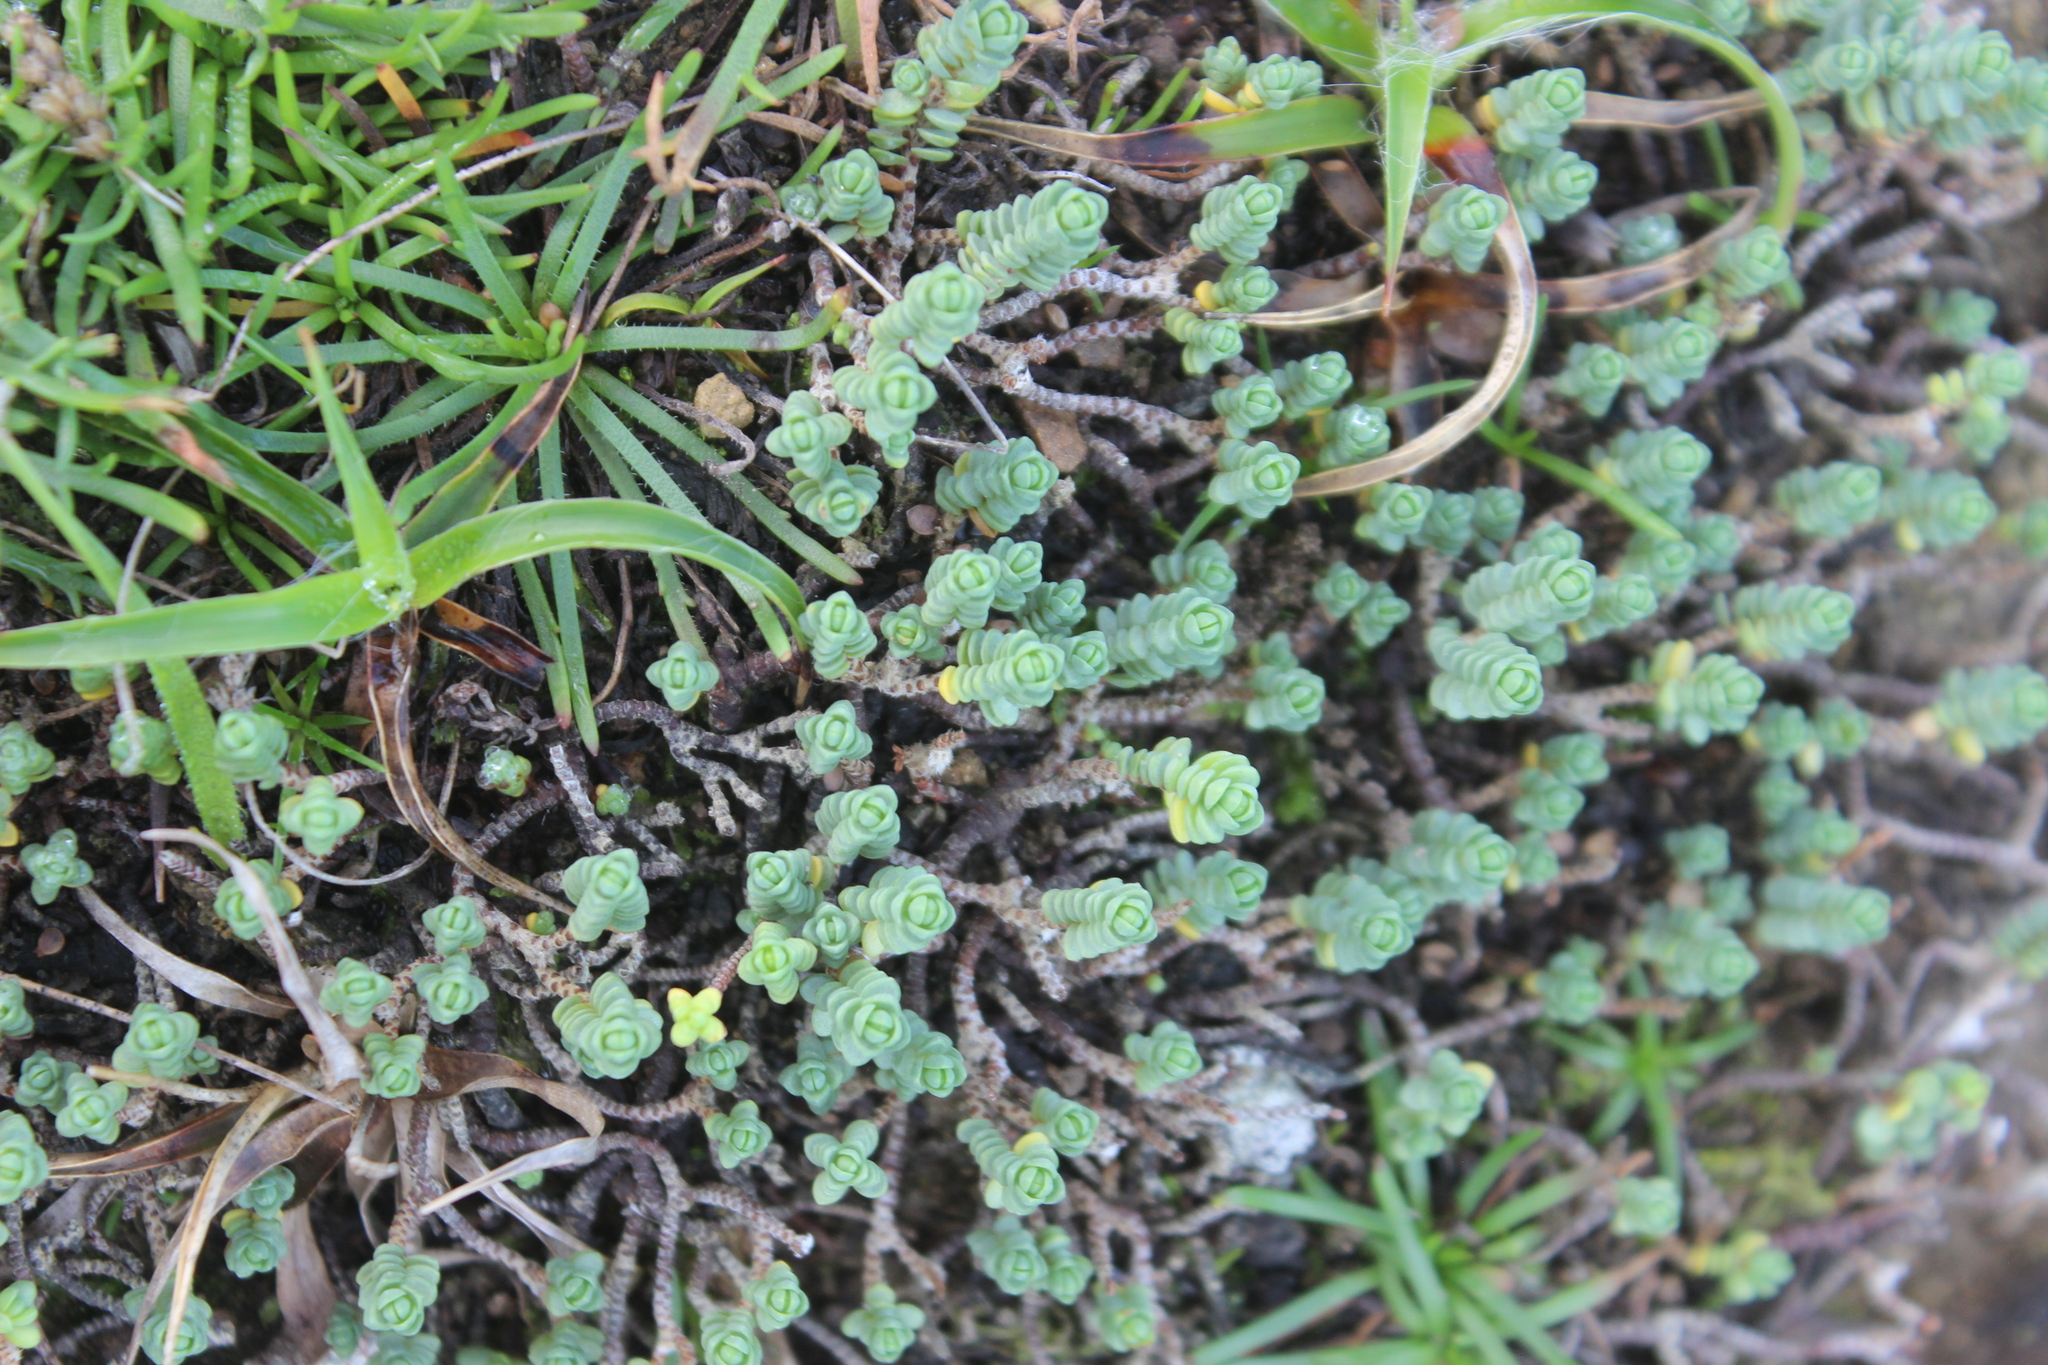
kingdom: Plantae
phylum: Tracheophyta
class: Magnoliopsida
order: Malvales
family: Thymelaeaceae
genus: Pimelea
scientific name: Pimelea carnosa
